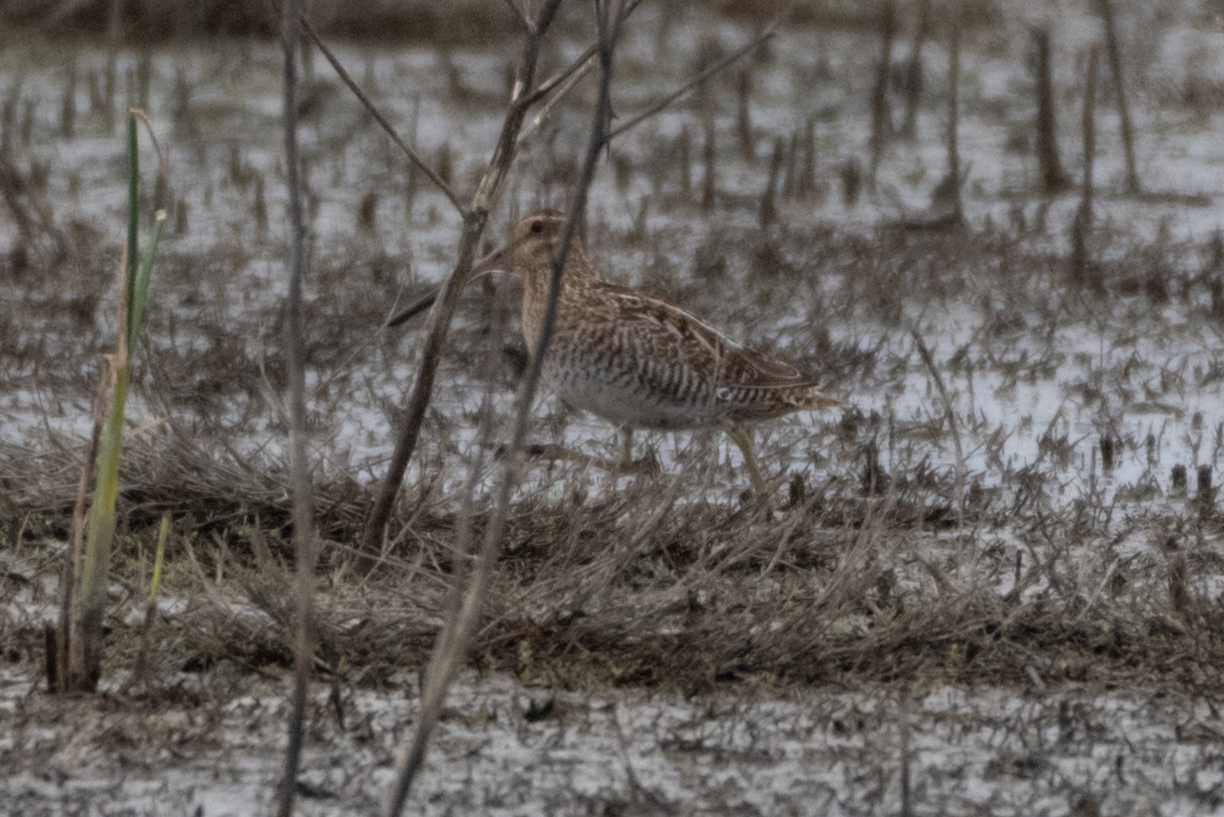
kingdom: Animalia
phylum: Chordata
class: Aves
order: Charadriiformes
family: Scolopacidae
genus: Gallinago
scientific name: Gallinago delicata
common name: Wilson's snipe
